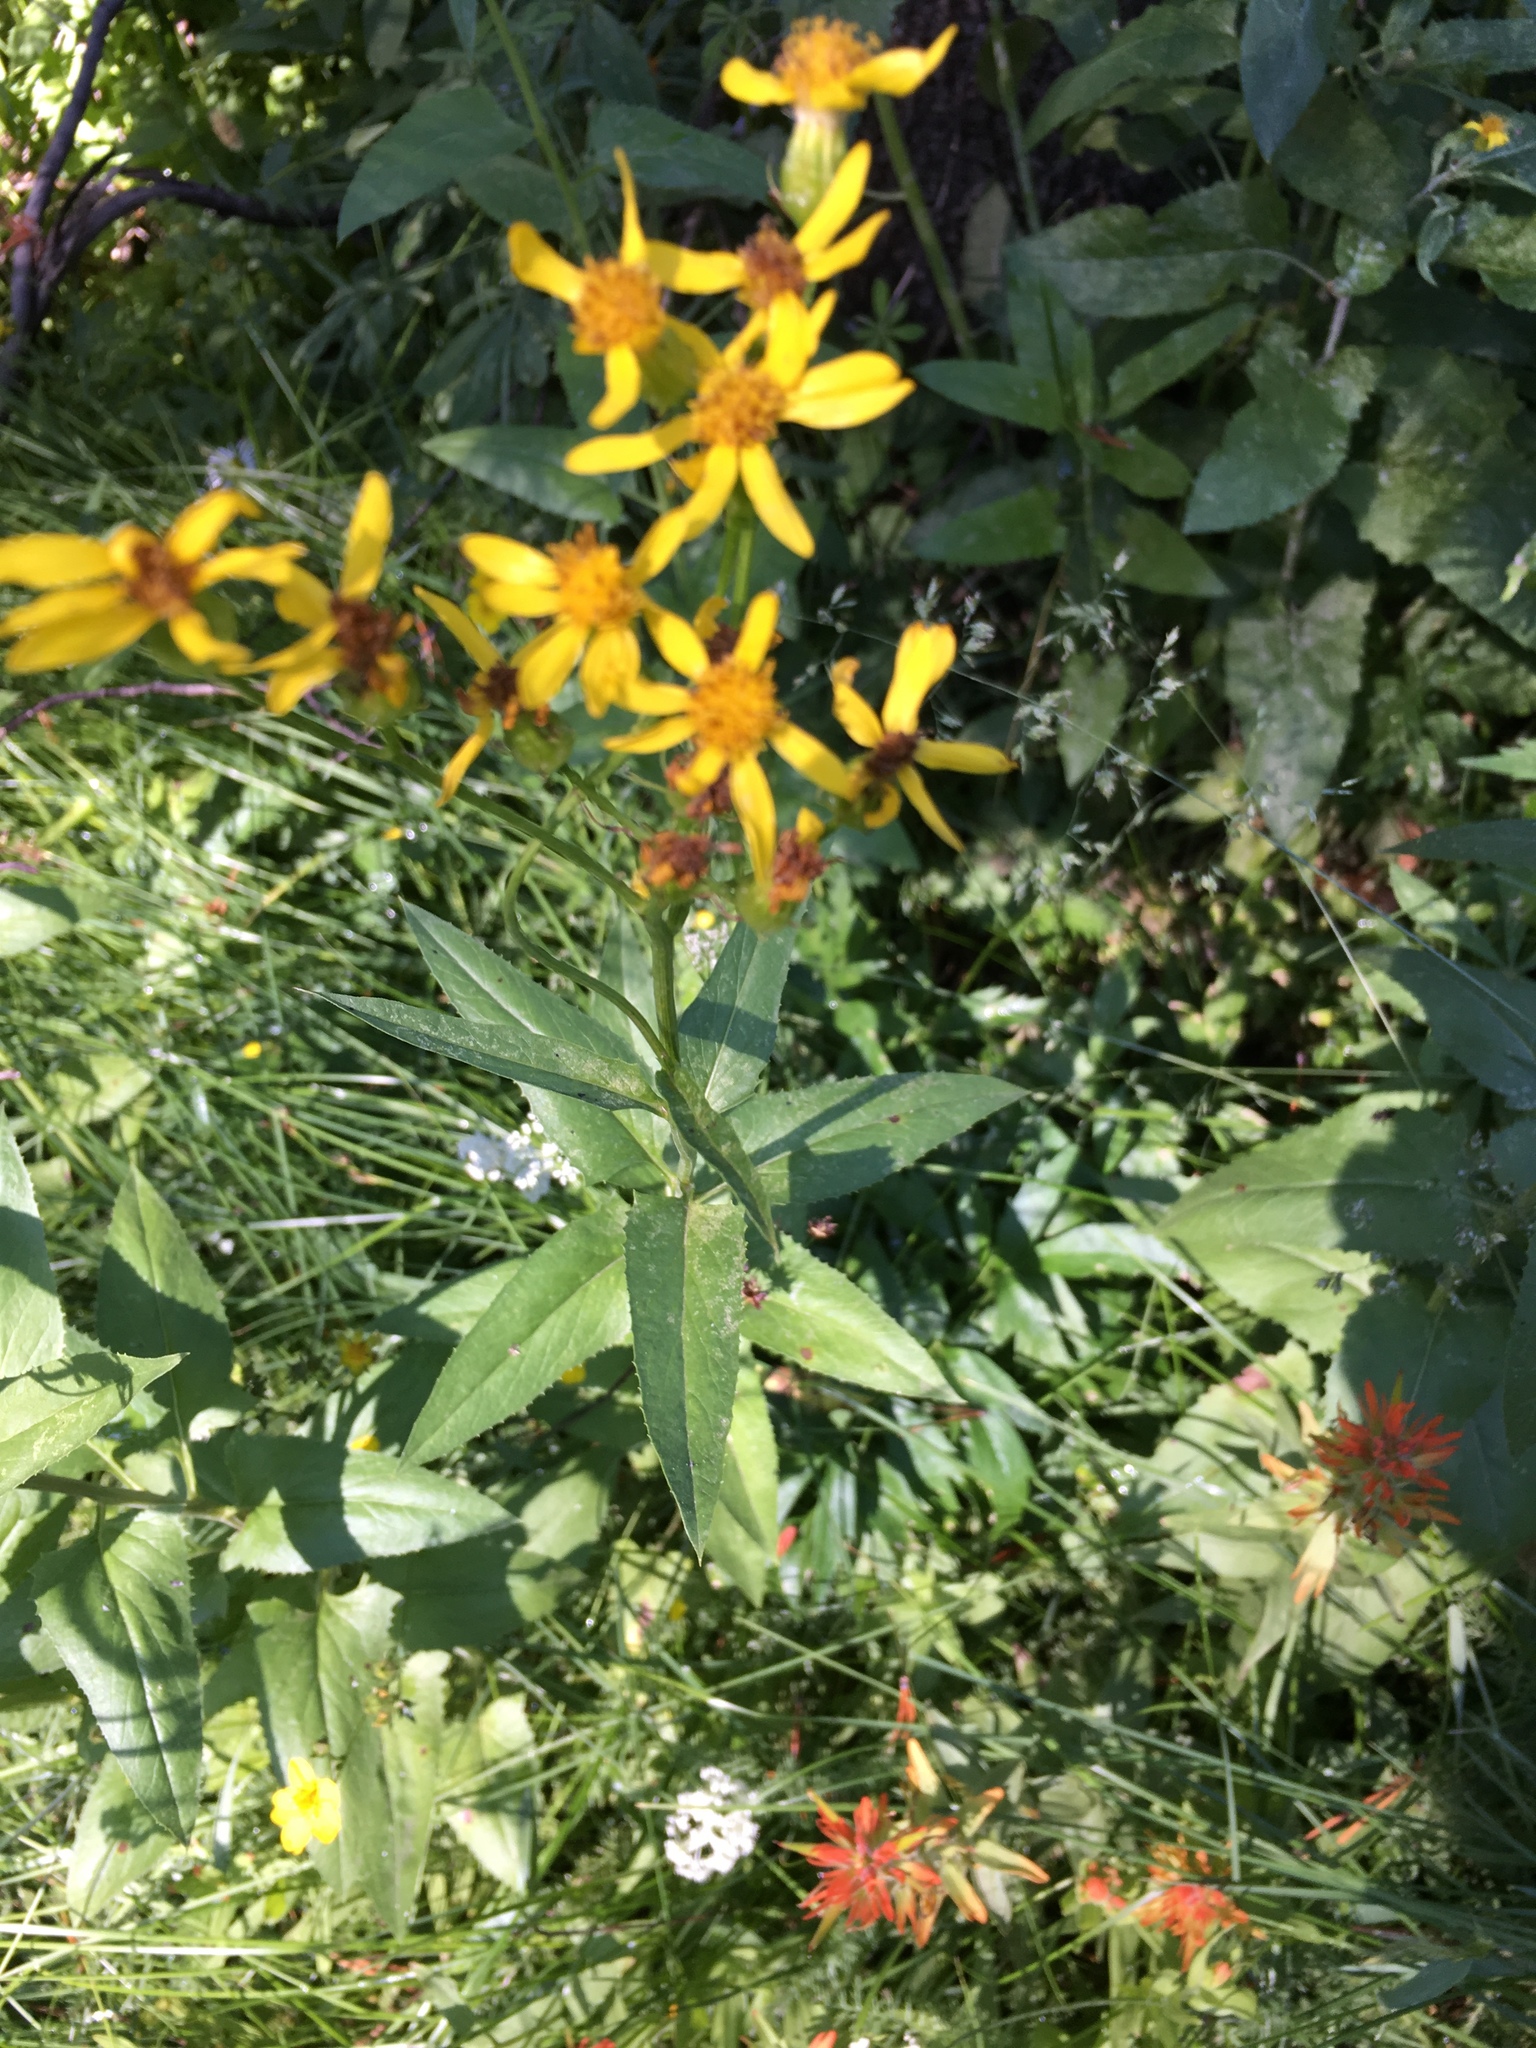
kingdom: Plantae
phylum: Tracheophyta
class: Magnoliopsida
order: Asterales
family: Asteraceae
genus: Senecio
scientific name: Senecio triangularis
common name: Arrowleaf butterweed
